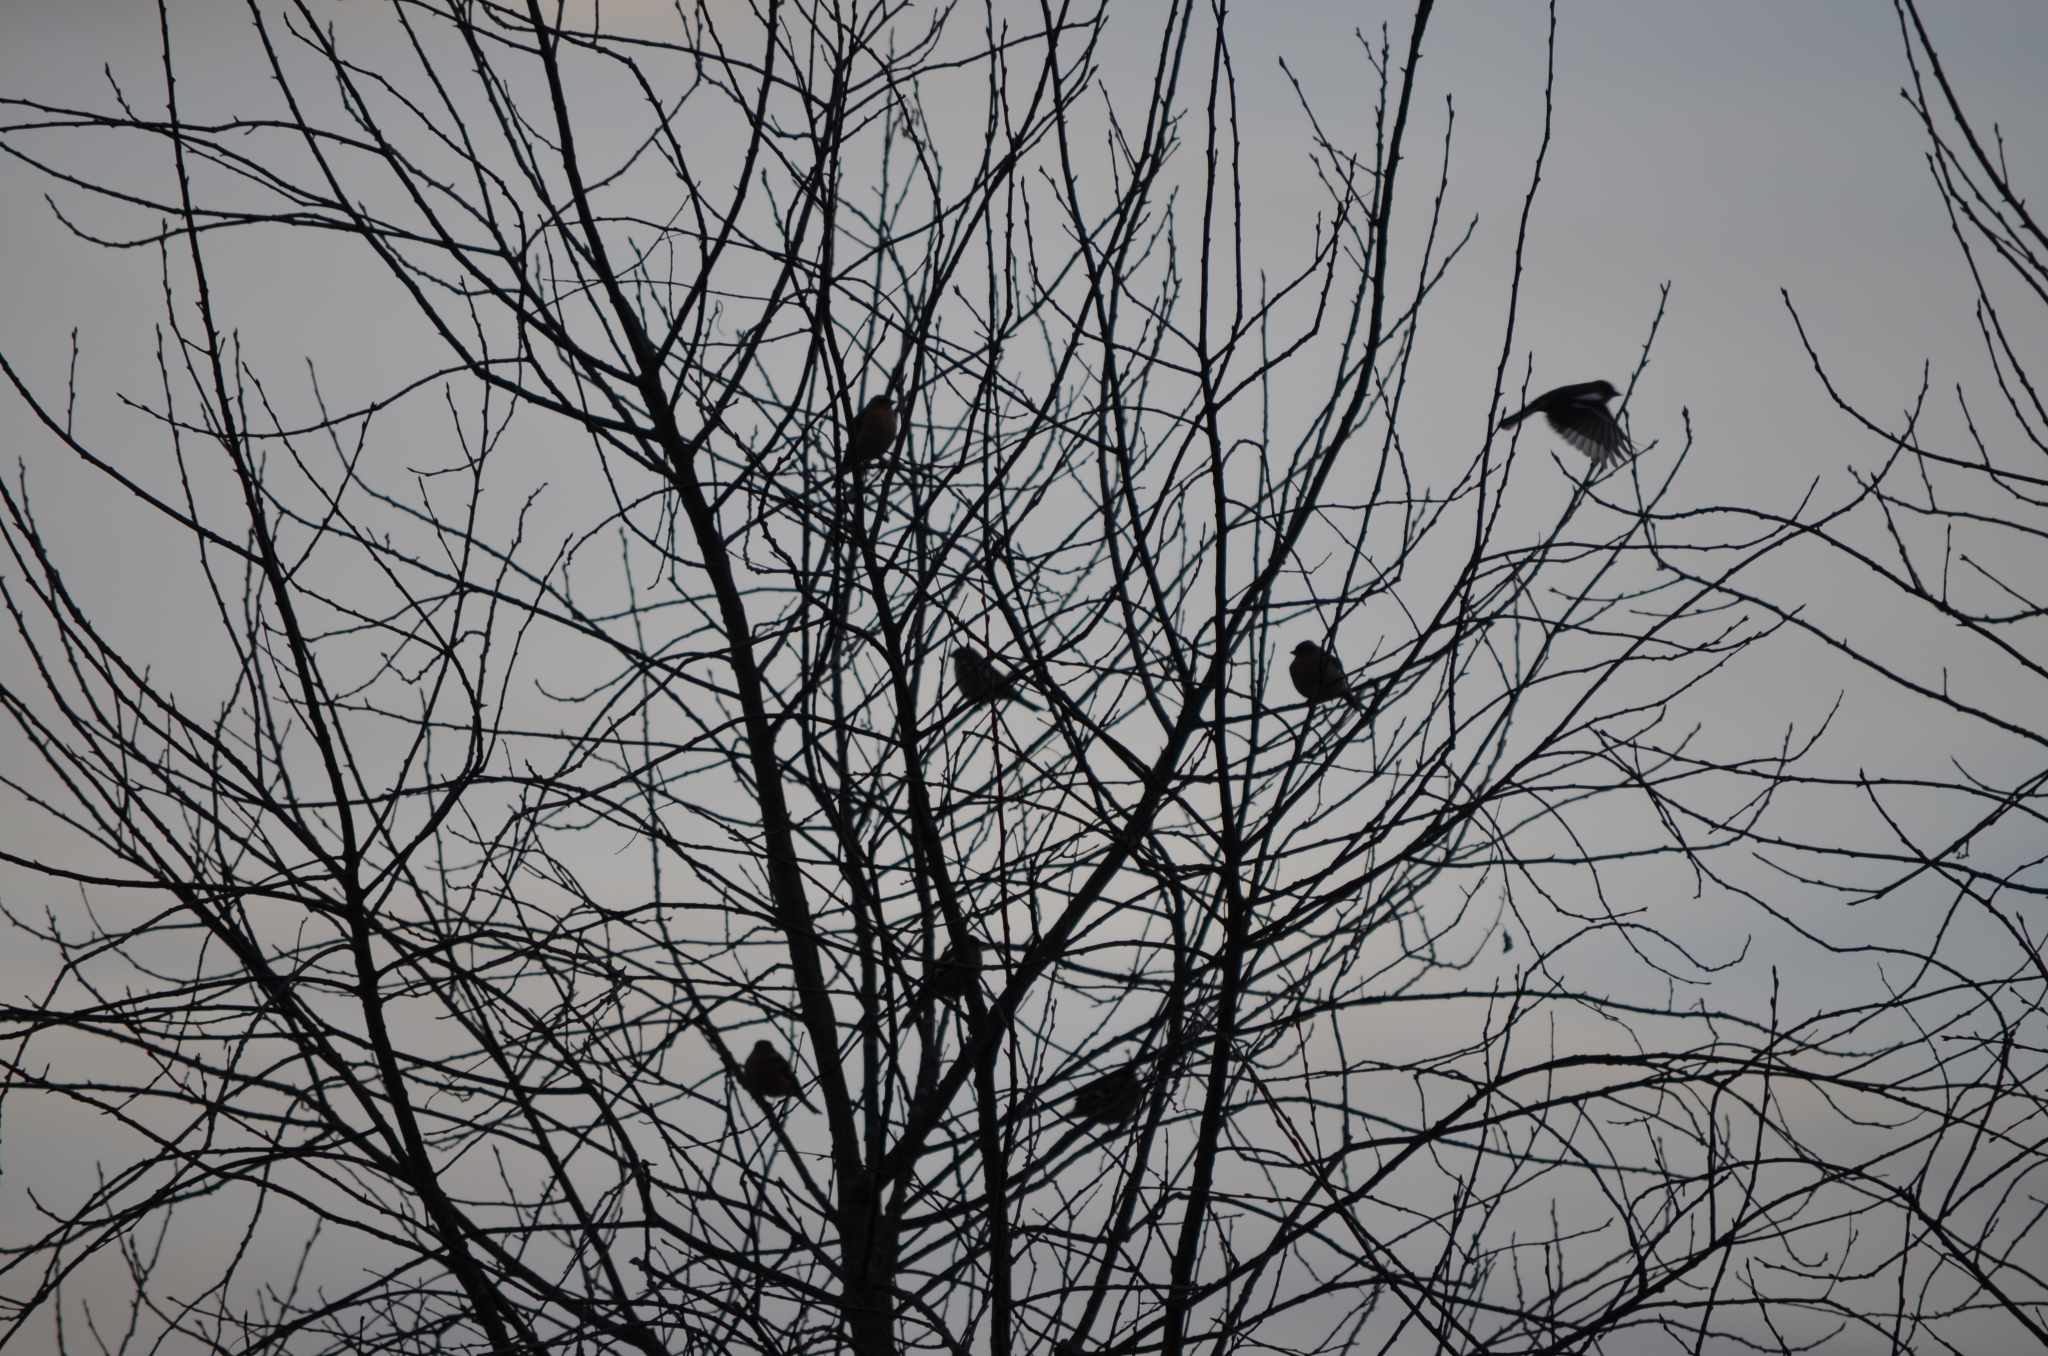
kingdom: Animalia
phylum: Chordata
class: Aves
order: Passeriformes
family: Fringillidae
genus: Fringilla
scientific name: Fringilla coelebs
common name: Common chaffinch
